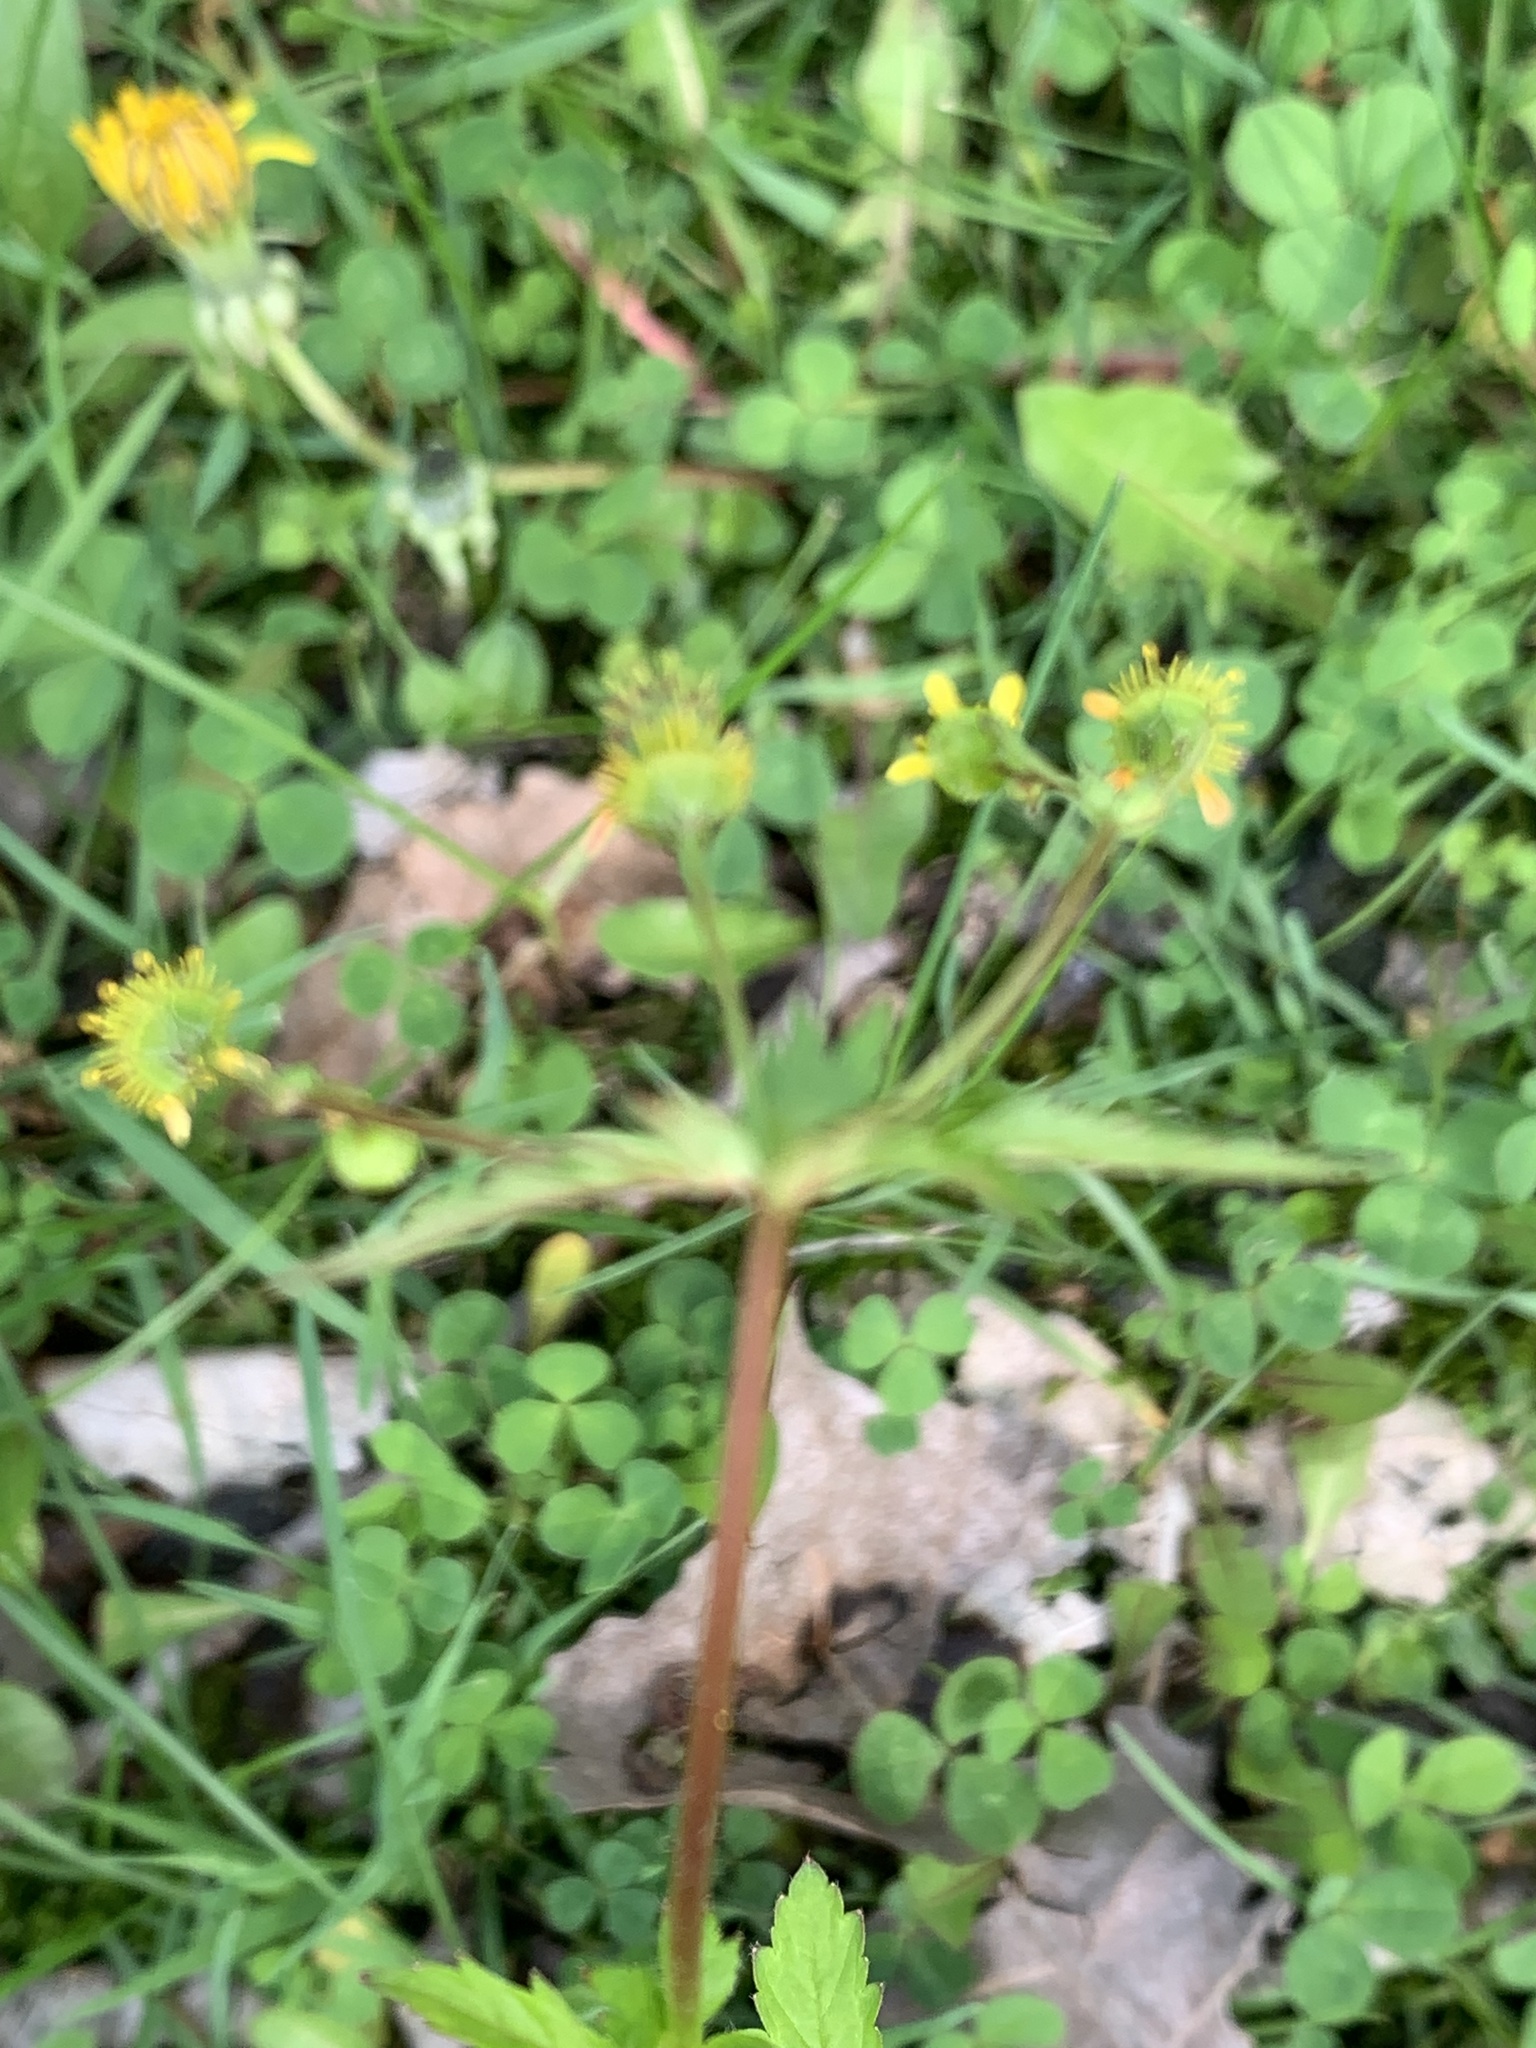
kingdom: Plantae
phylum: Tracheophyta
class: Magnoliopsida
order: Rosales
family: Rosaceae
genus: Geum
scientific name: Geum vernum
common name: Spring avens
